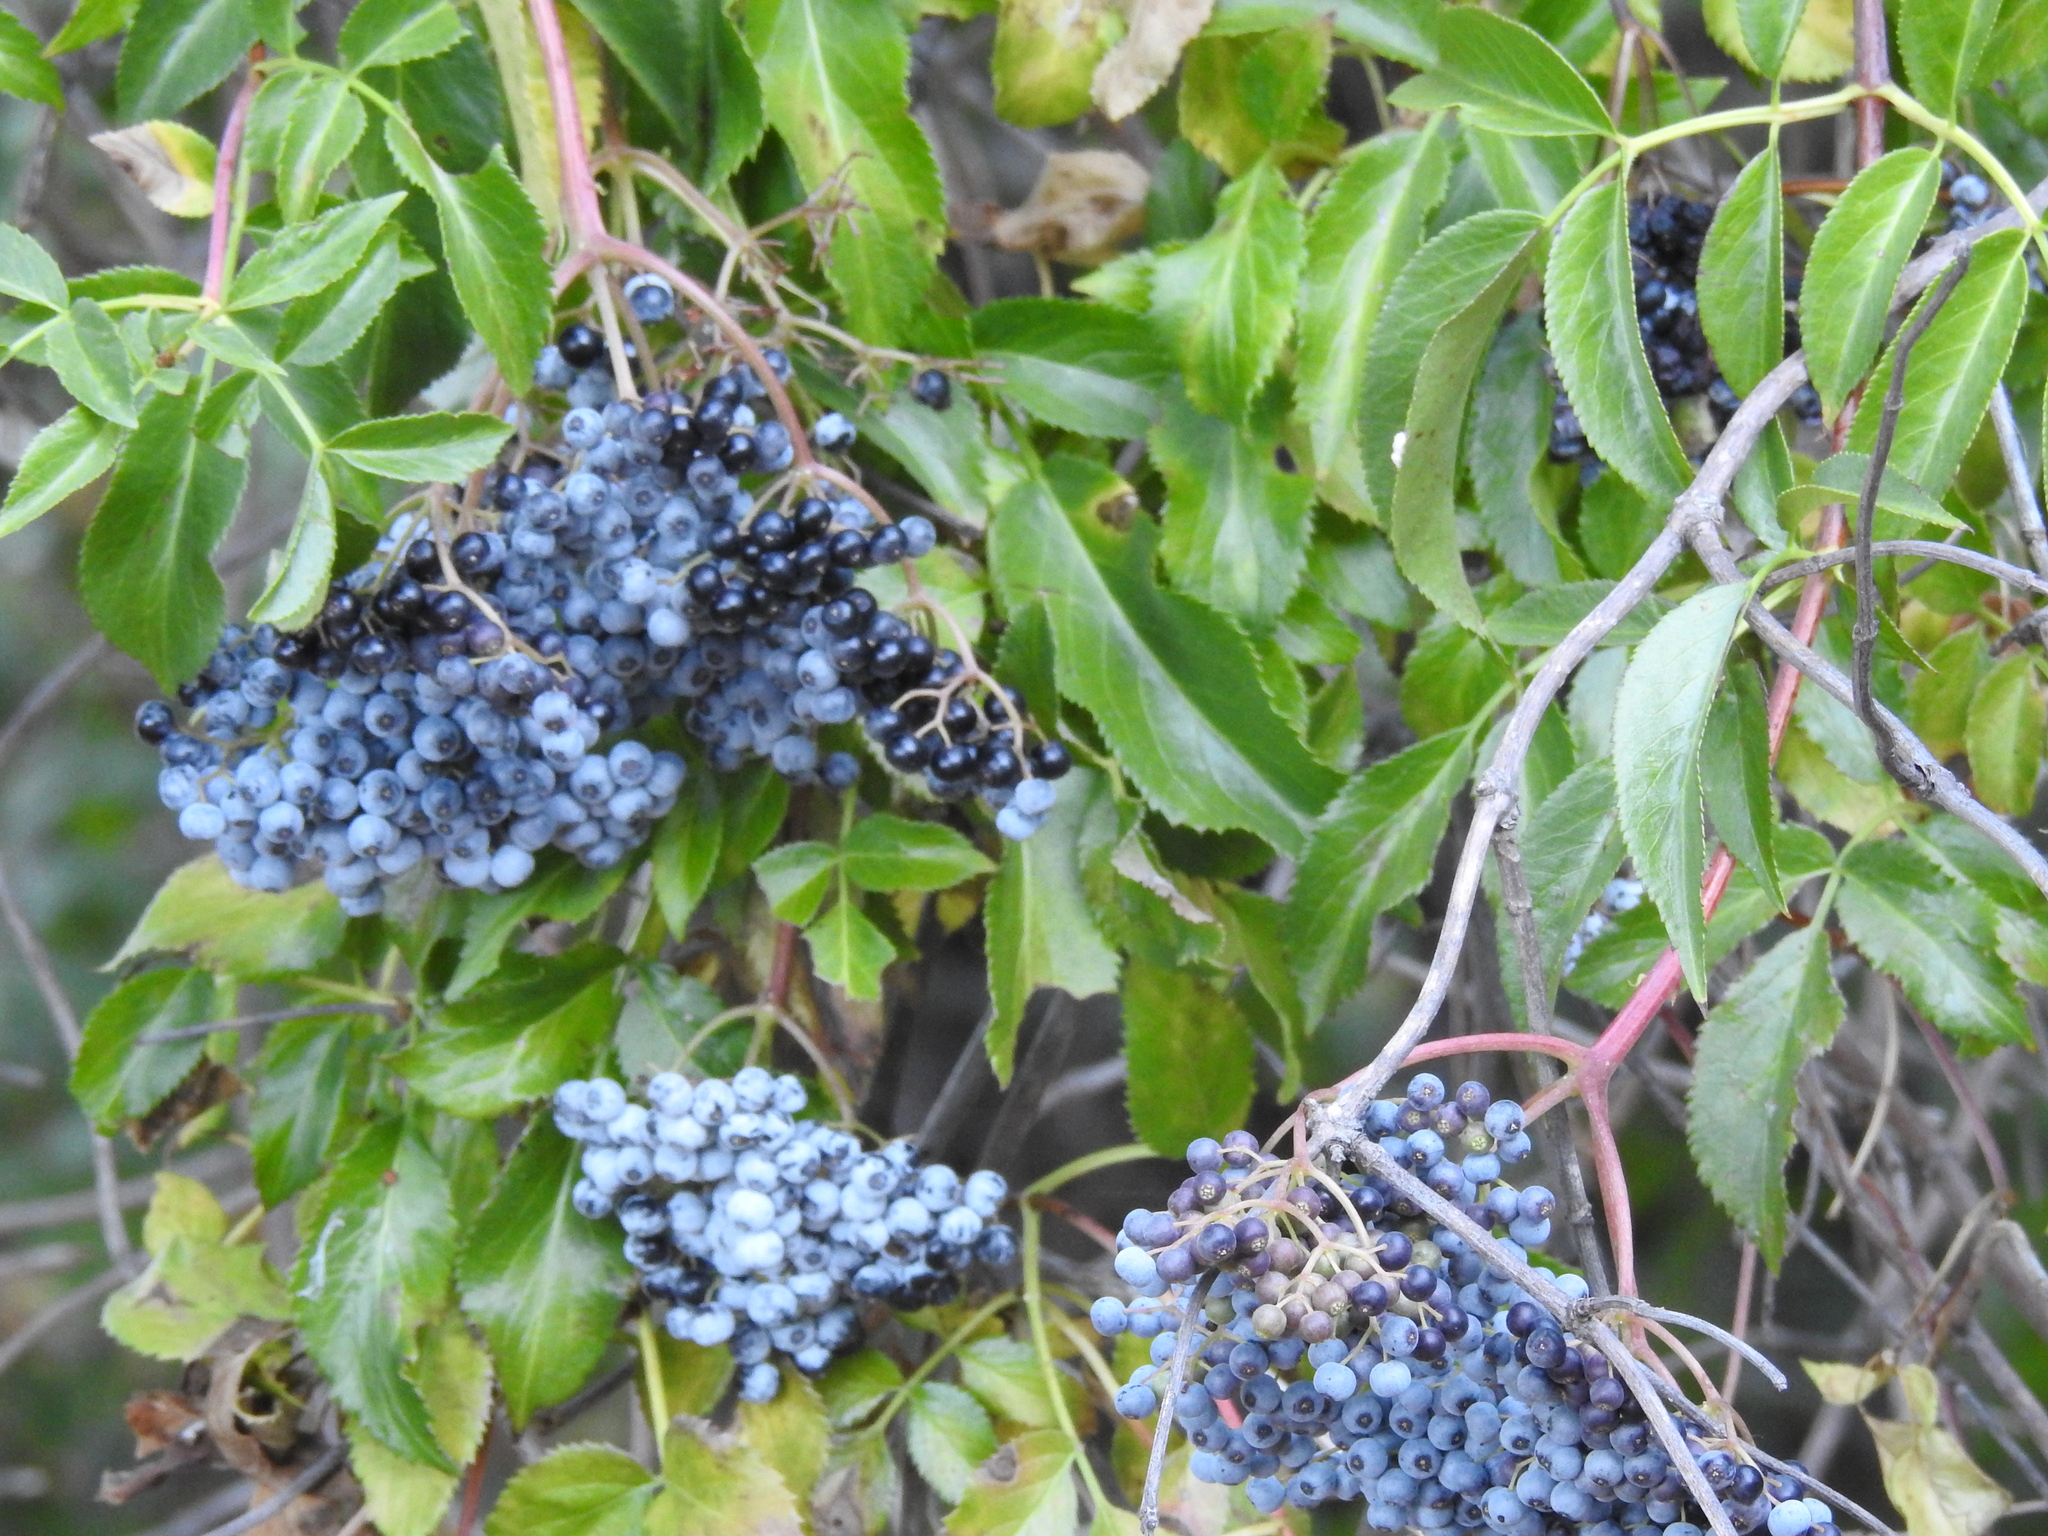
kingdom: Plantae
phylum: Tracheophyta
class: Magnoliopsida
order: Dipsacales
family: Viburnaceae
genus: Sambucus
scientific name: Sambucus cerulea
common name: Blue elder
